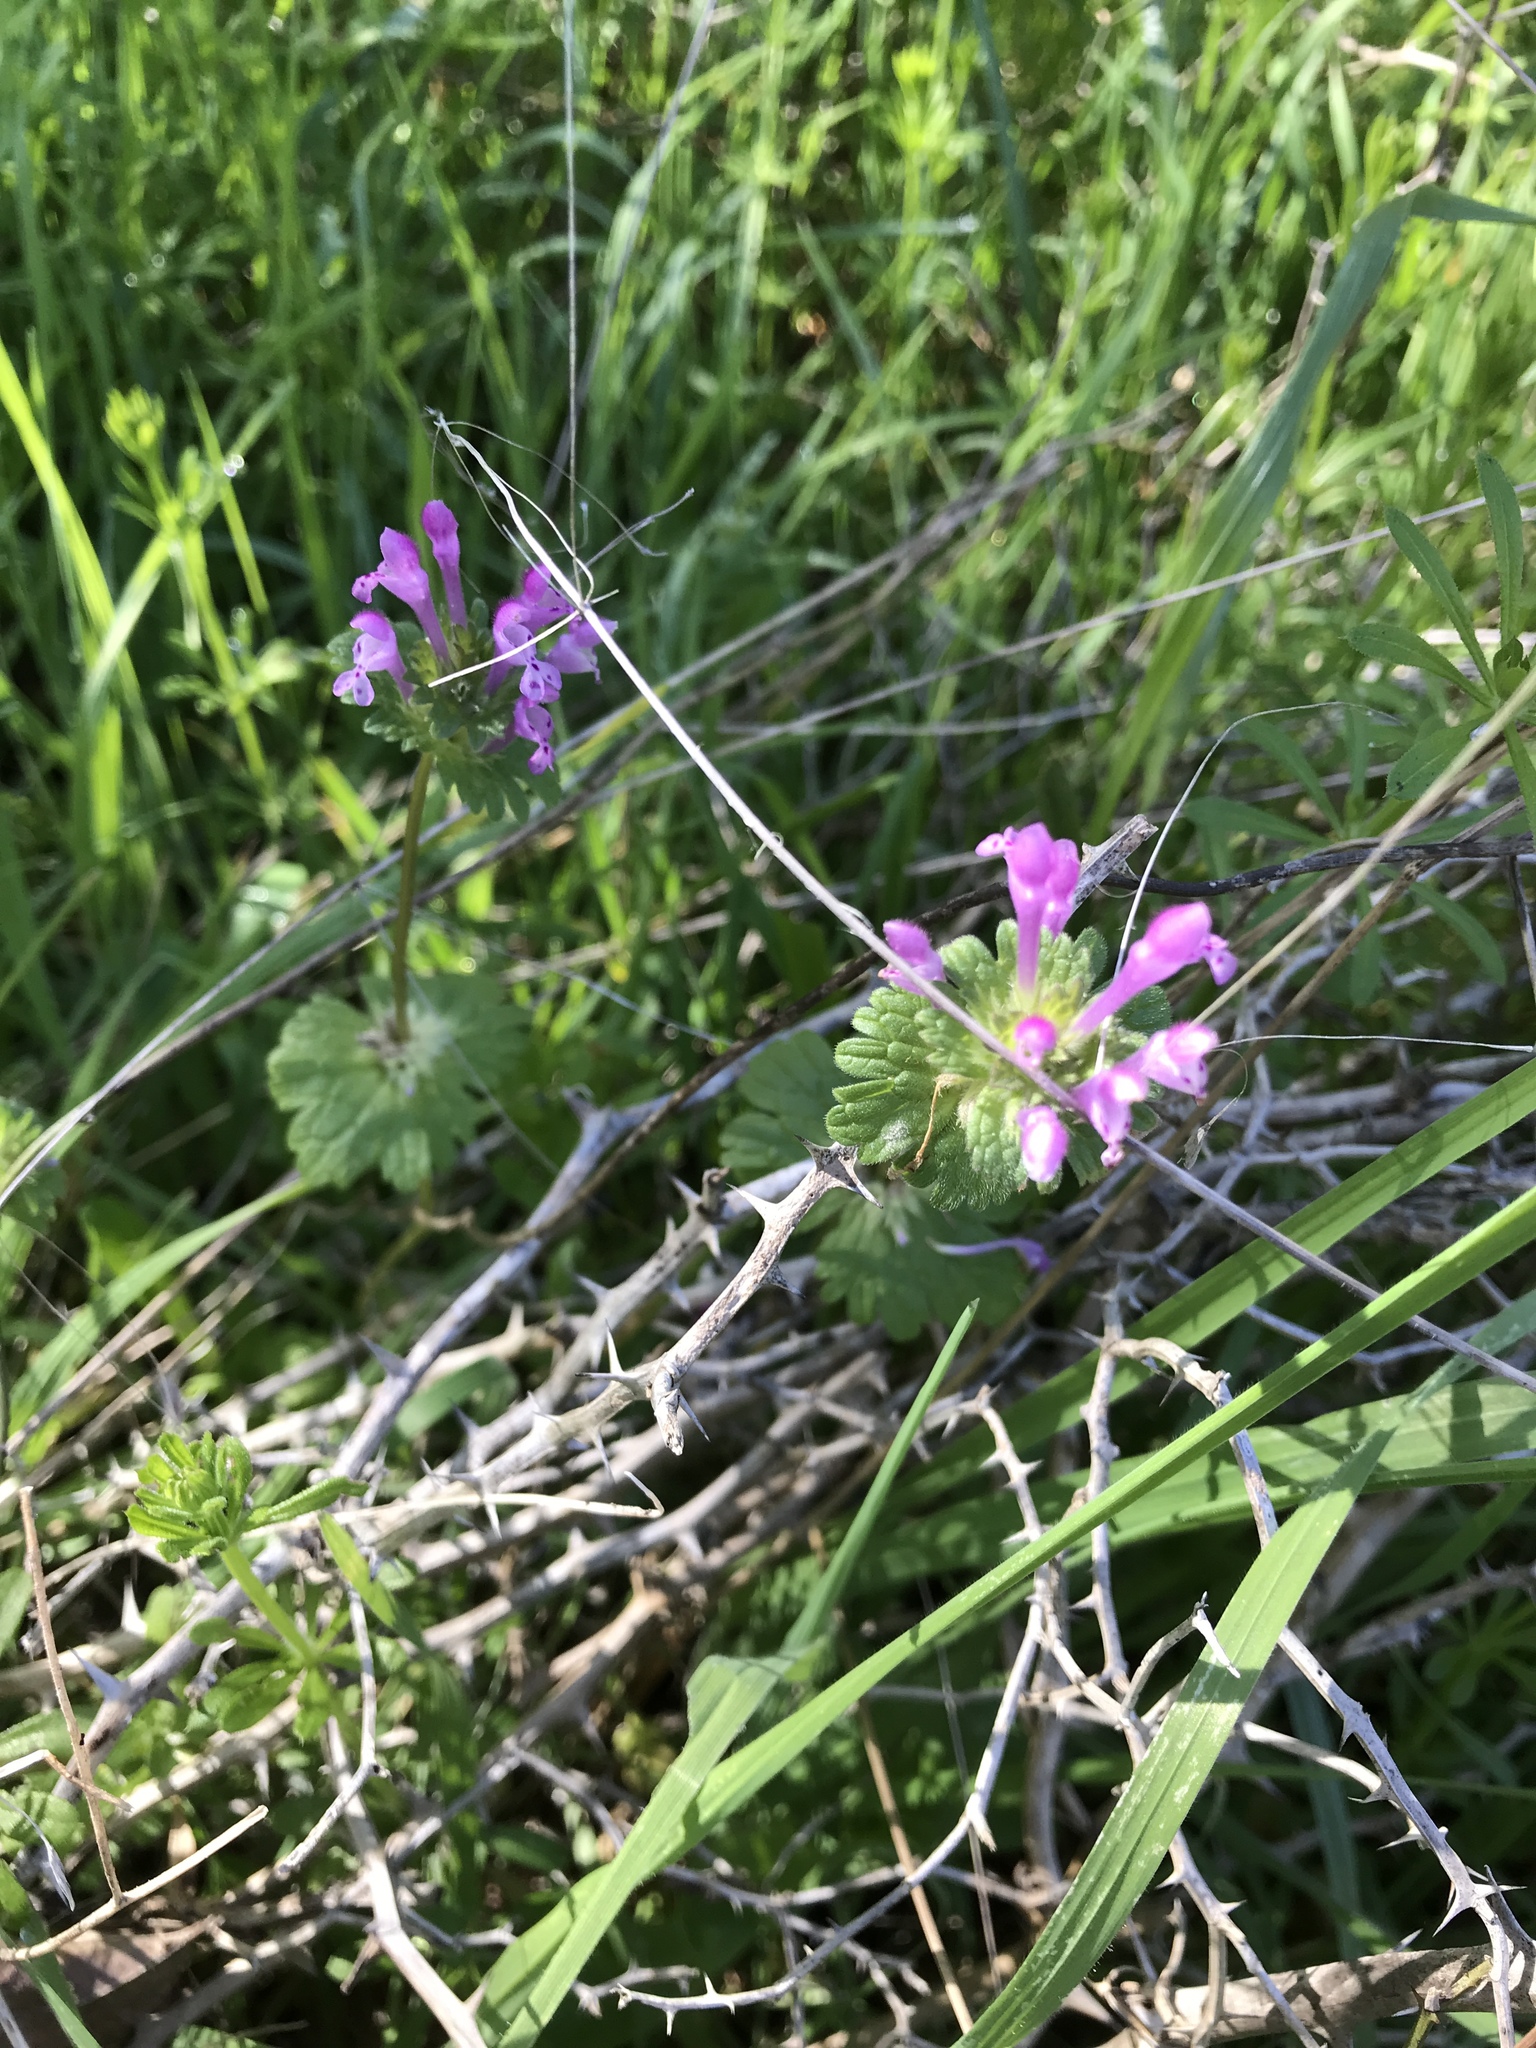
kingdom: Plantae
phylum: Tracheophyta
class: Magnoliopsida
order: Lamiales
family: Lamiaceae
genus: Lamium
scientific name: Lamium amplexicaule
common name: Henbit dead-nettle
